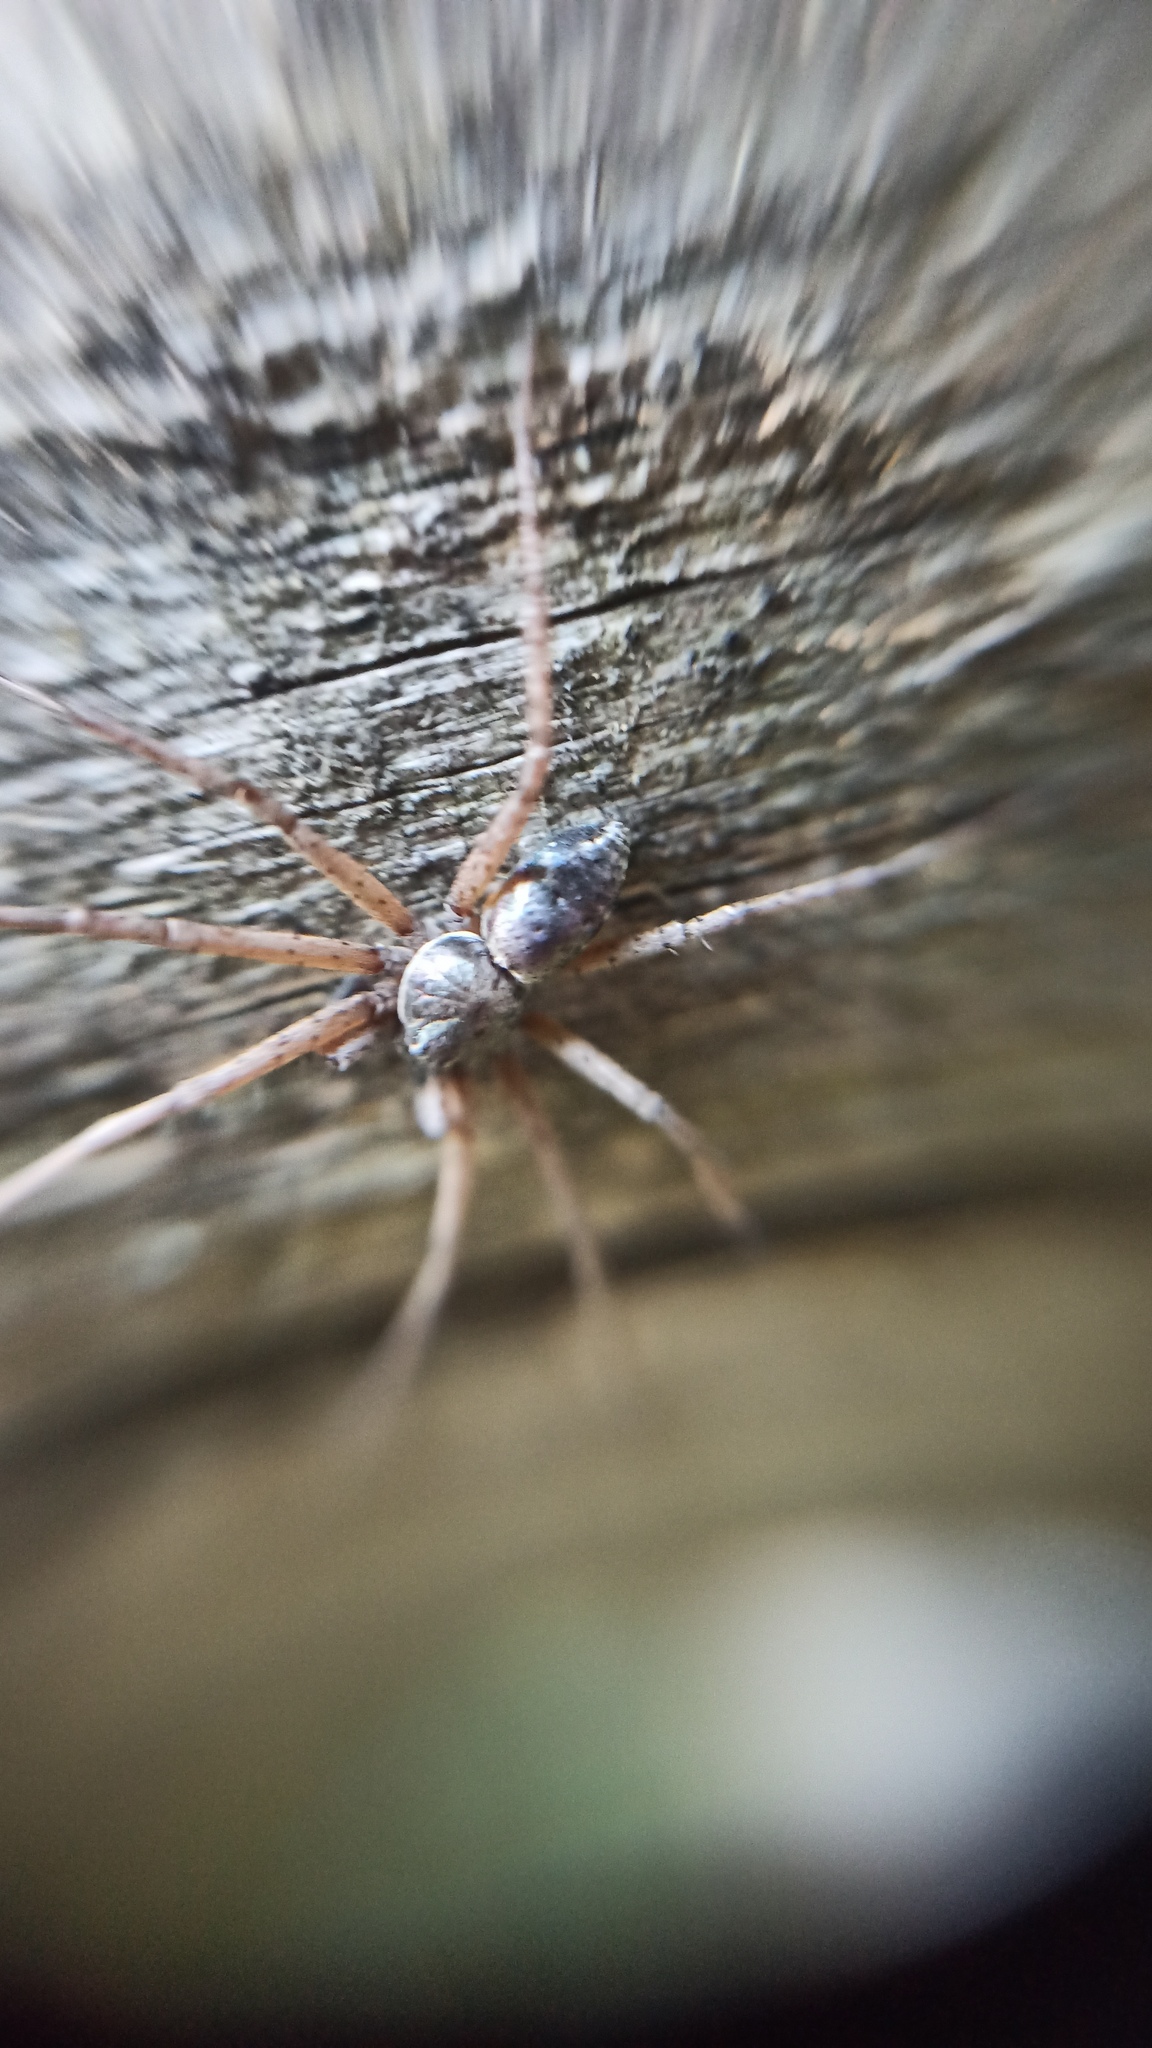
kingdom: Animalia
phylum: Arthropoda
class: Arachnida
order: Araneae
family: Philodromidae
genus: Philodromus
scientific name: Philodromus
